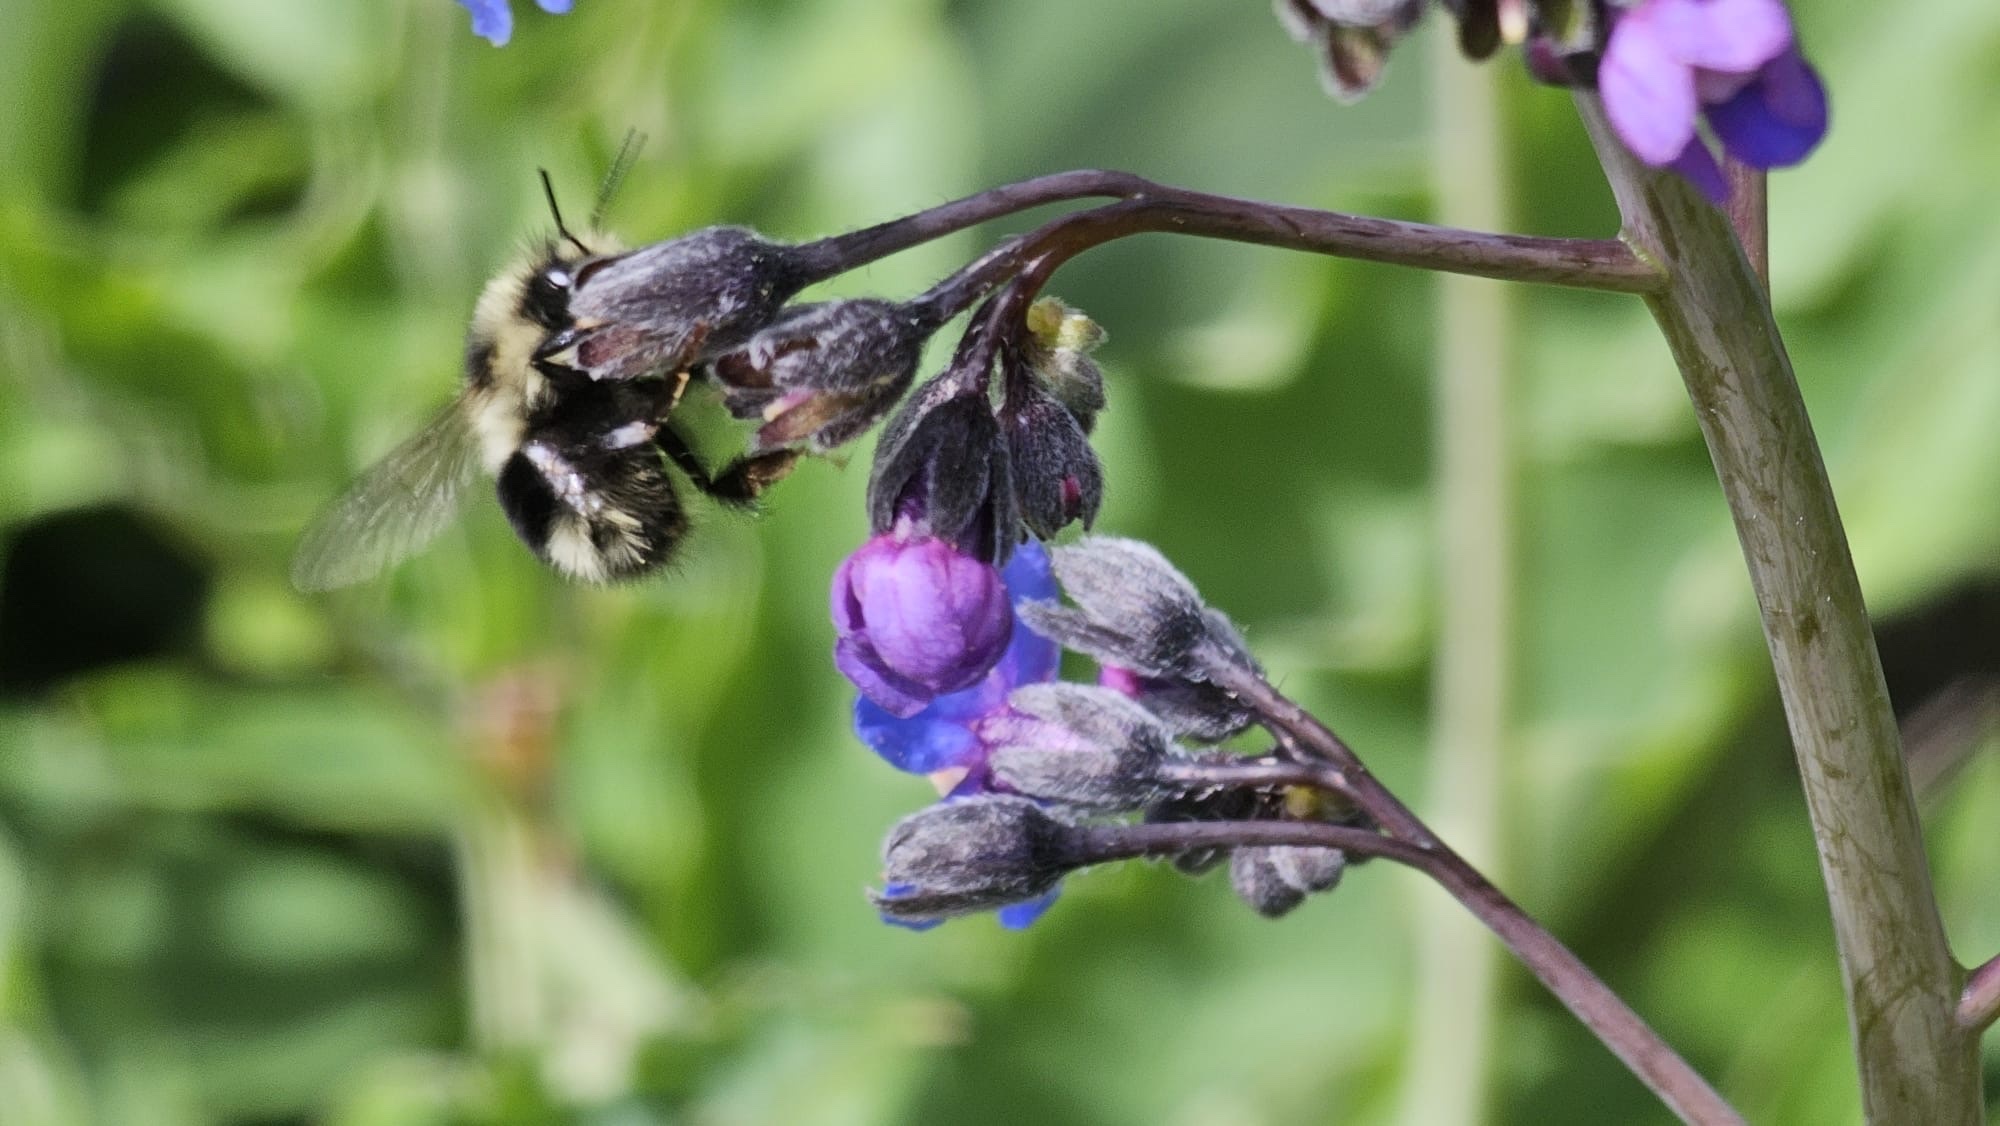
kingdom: Animalia
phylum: Arthropoda
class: Insecta
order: Hymenoptera
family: Apidae
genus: Bombus
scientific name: Bombus melanopygus
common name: Black tail bumble bee
